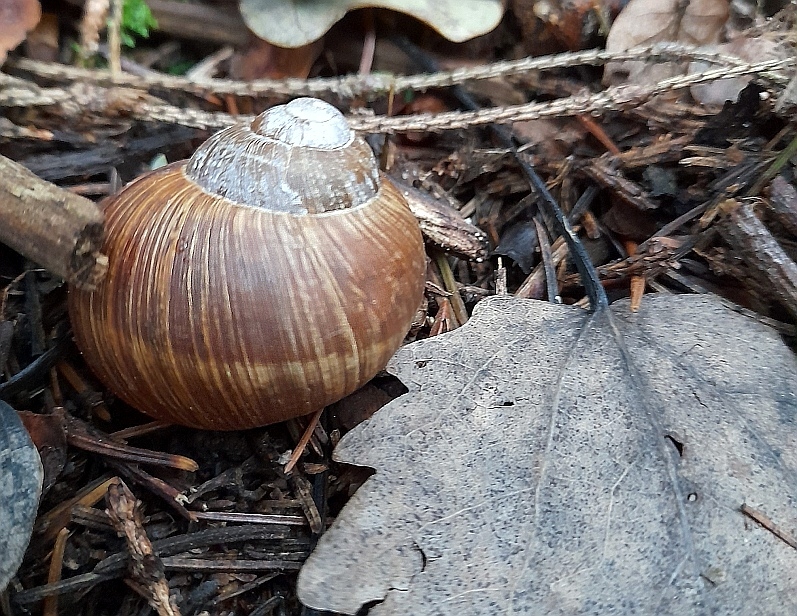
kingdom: Animalia
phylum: Mollusca
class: Gastropoda
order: Stylommatophora
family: Helicidae
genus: Helix
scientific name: Helix pomatia
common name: Roman snail
